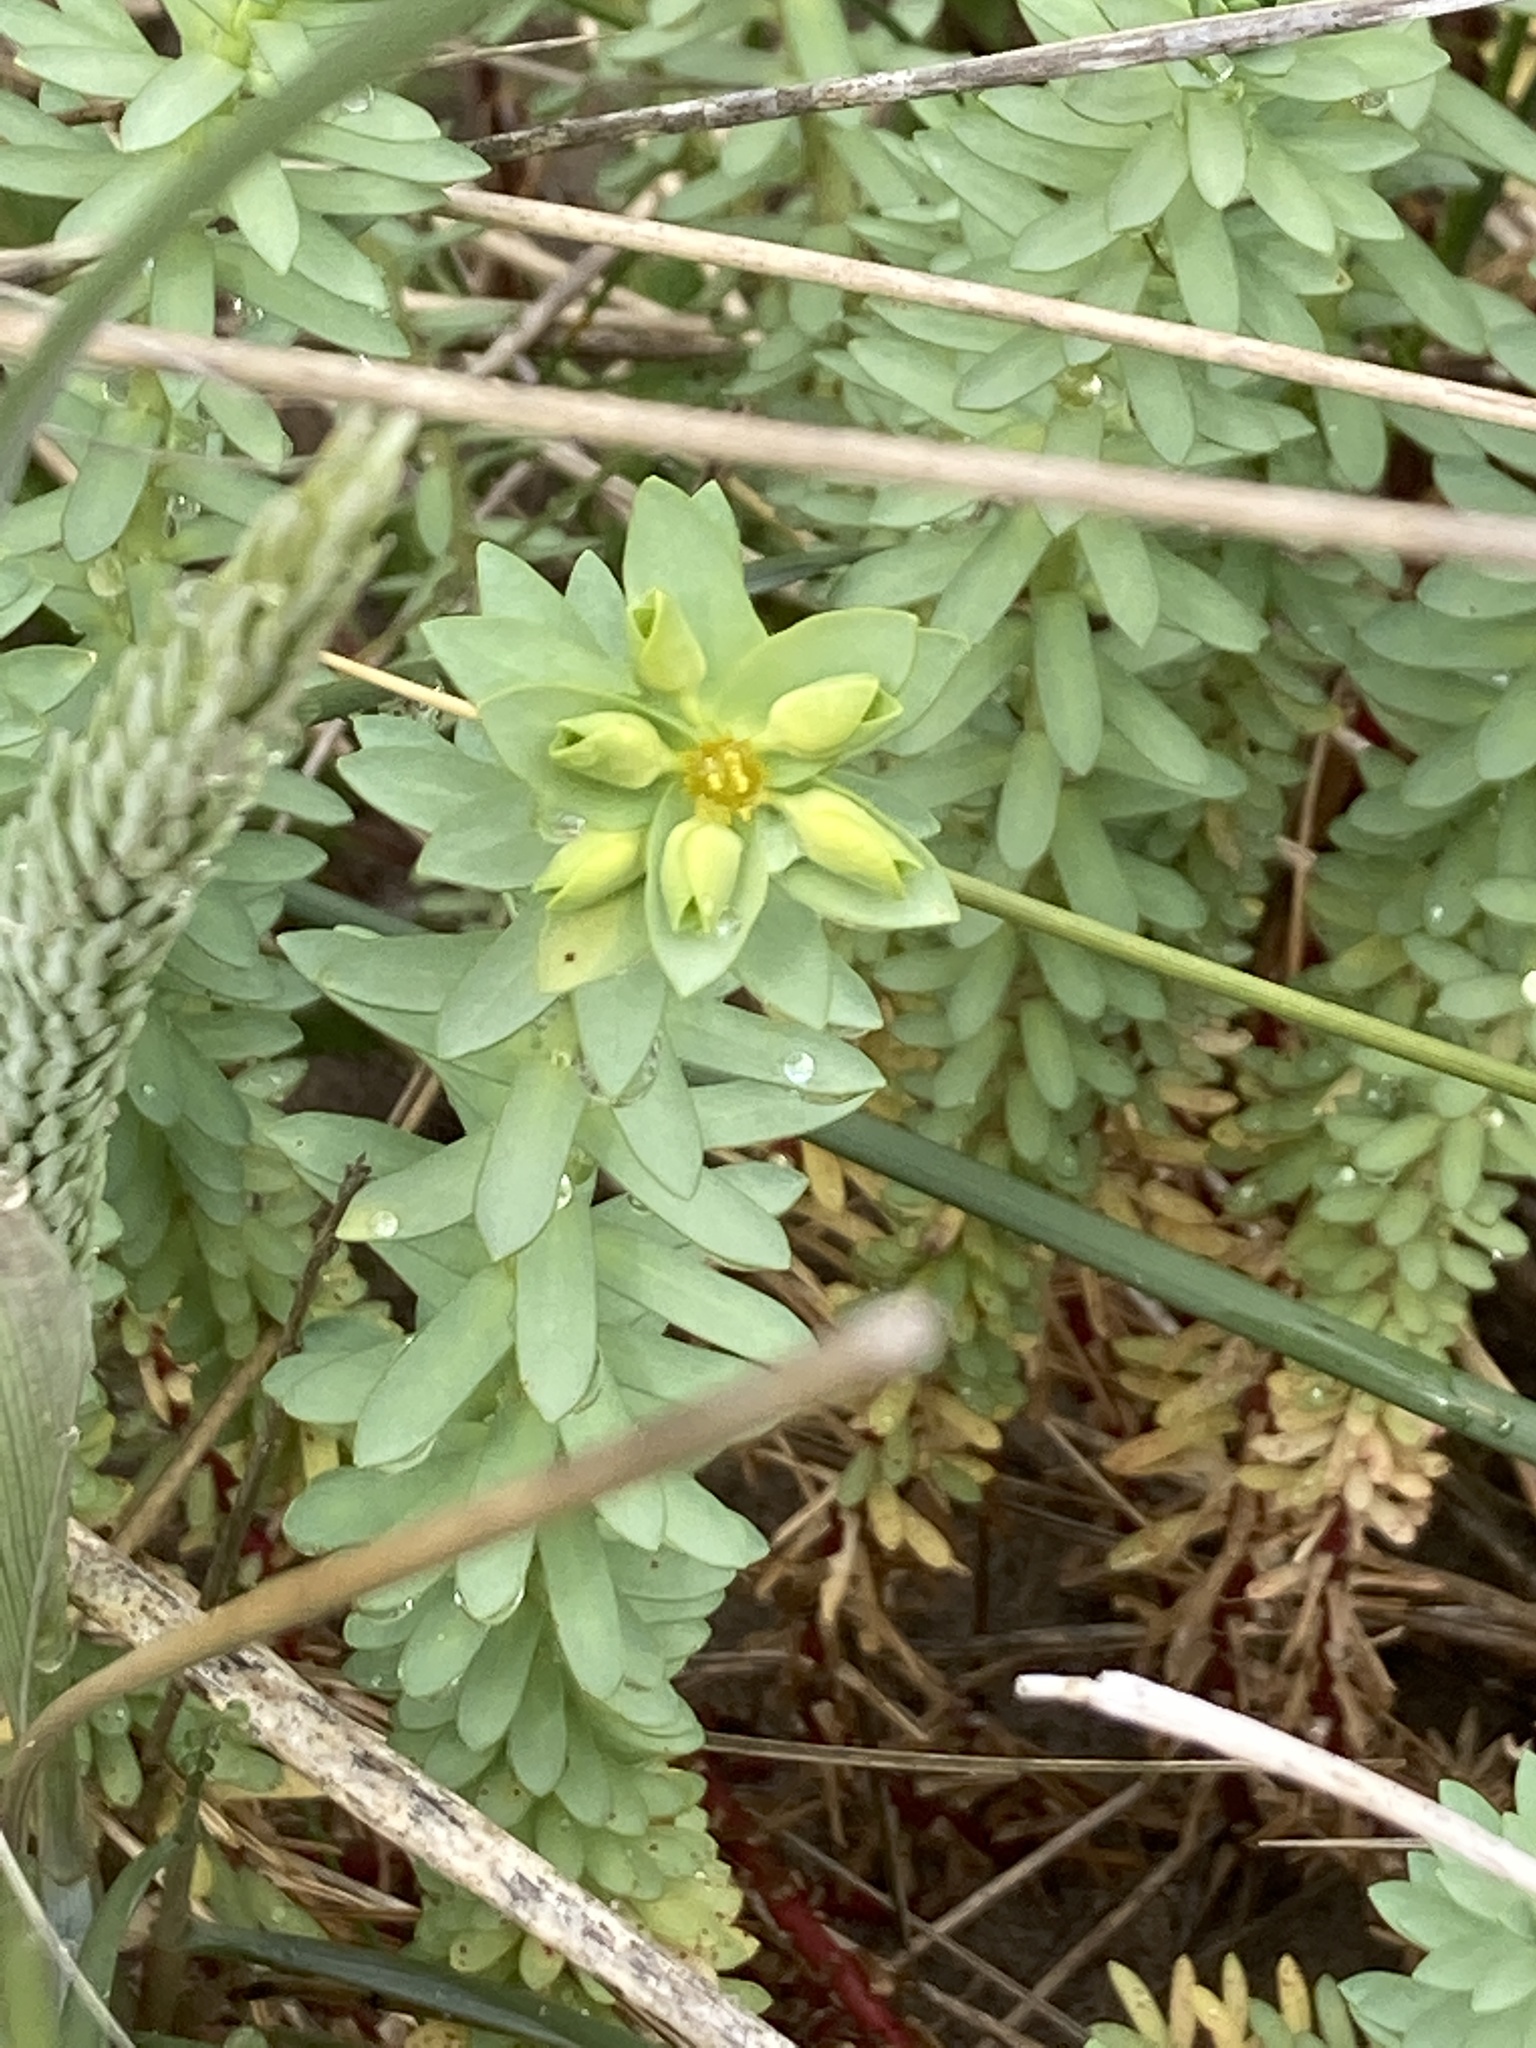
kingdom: Plantae
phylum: Tracheophyta
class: Magnoliopsida
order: Malpighiales
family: Euphorbiaceae
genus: Euphorbia
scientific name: Euphorbia paralias
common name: Sea spurge
